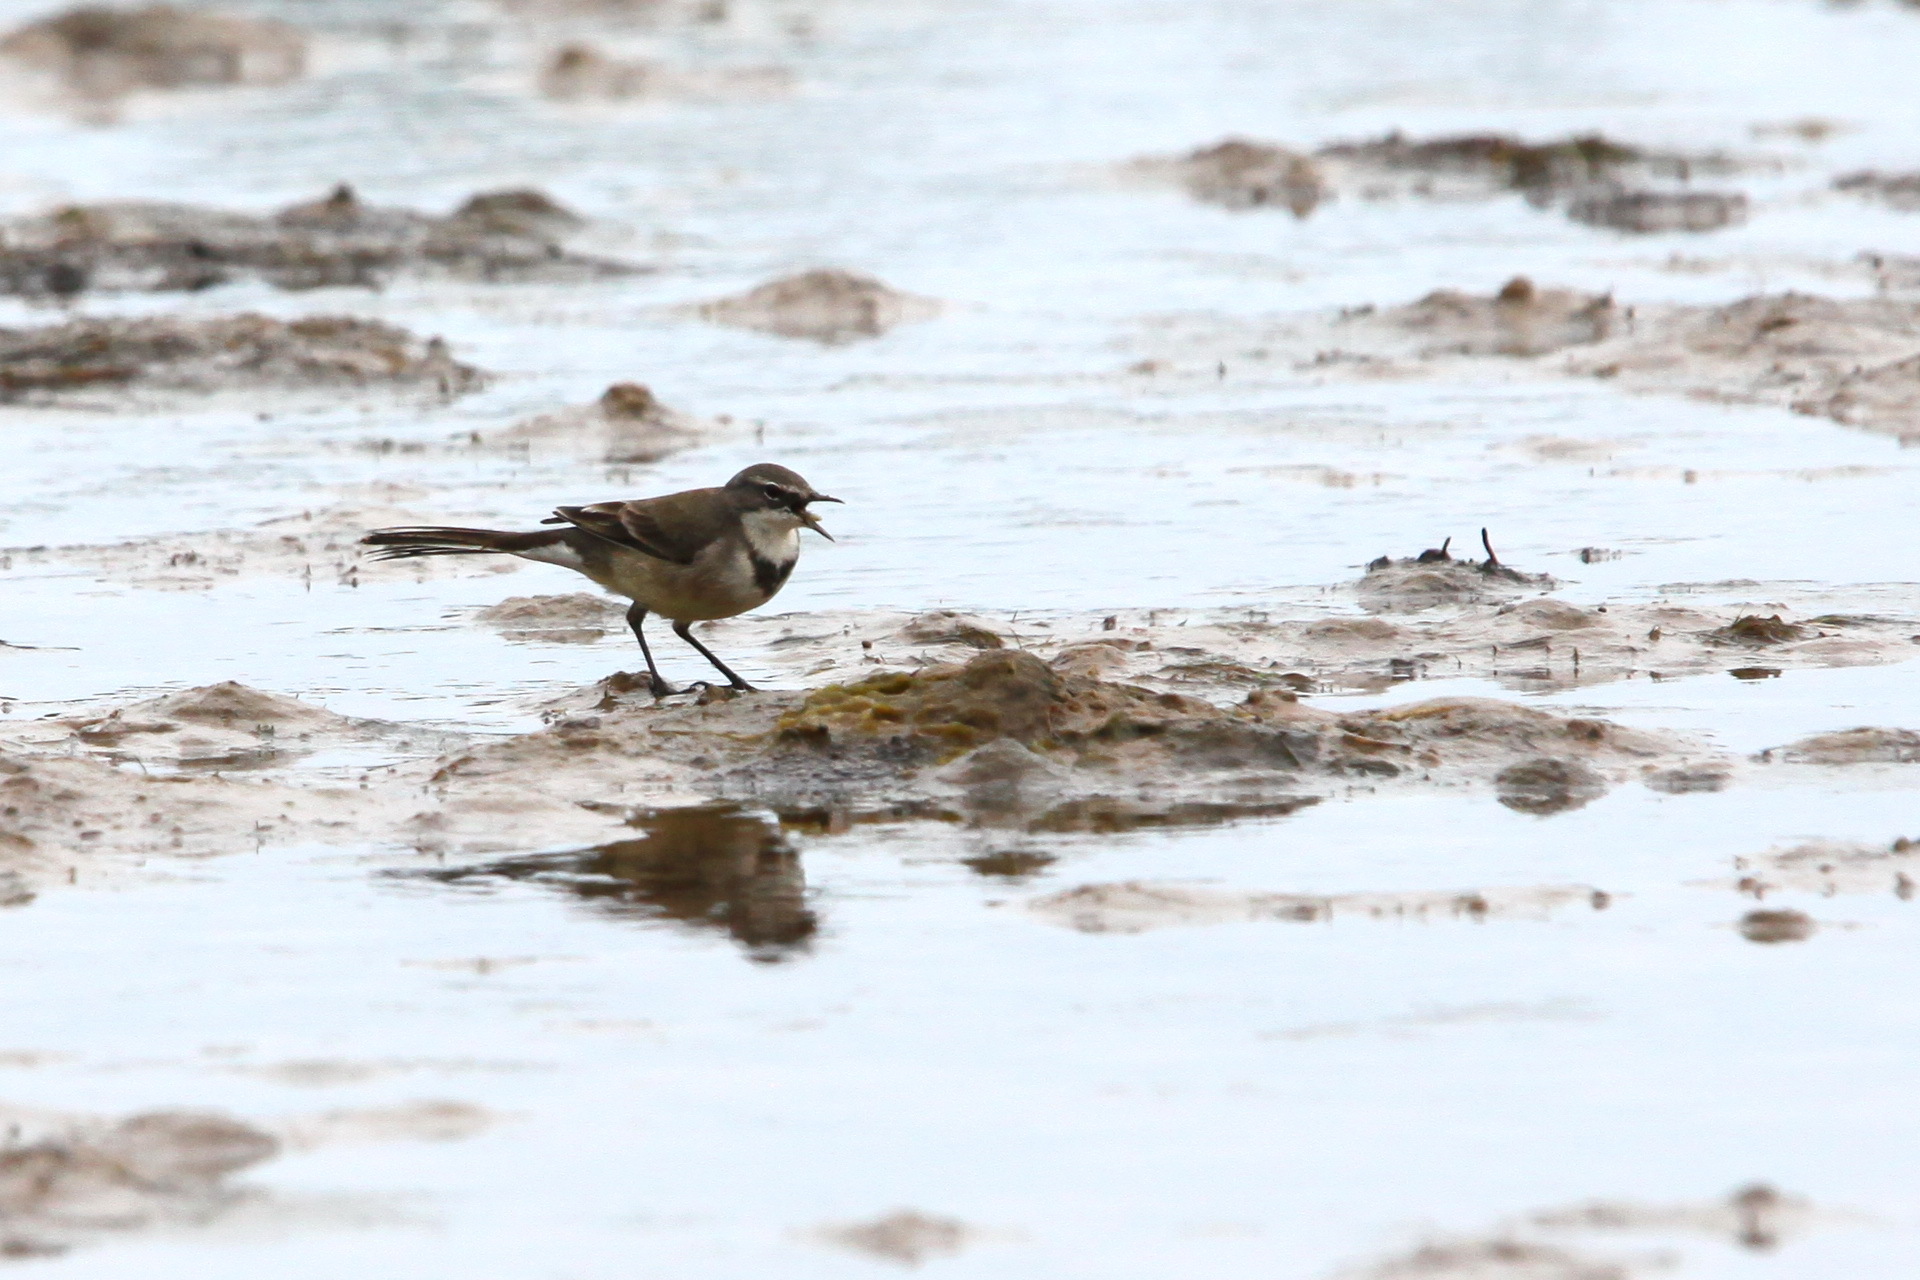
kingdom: Animalia
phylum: Chordata
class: Aves
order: Passeriformes
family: Motacillidae
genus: Motacilla
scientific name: Motacilla capensis
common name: Cape wagtail
